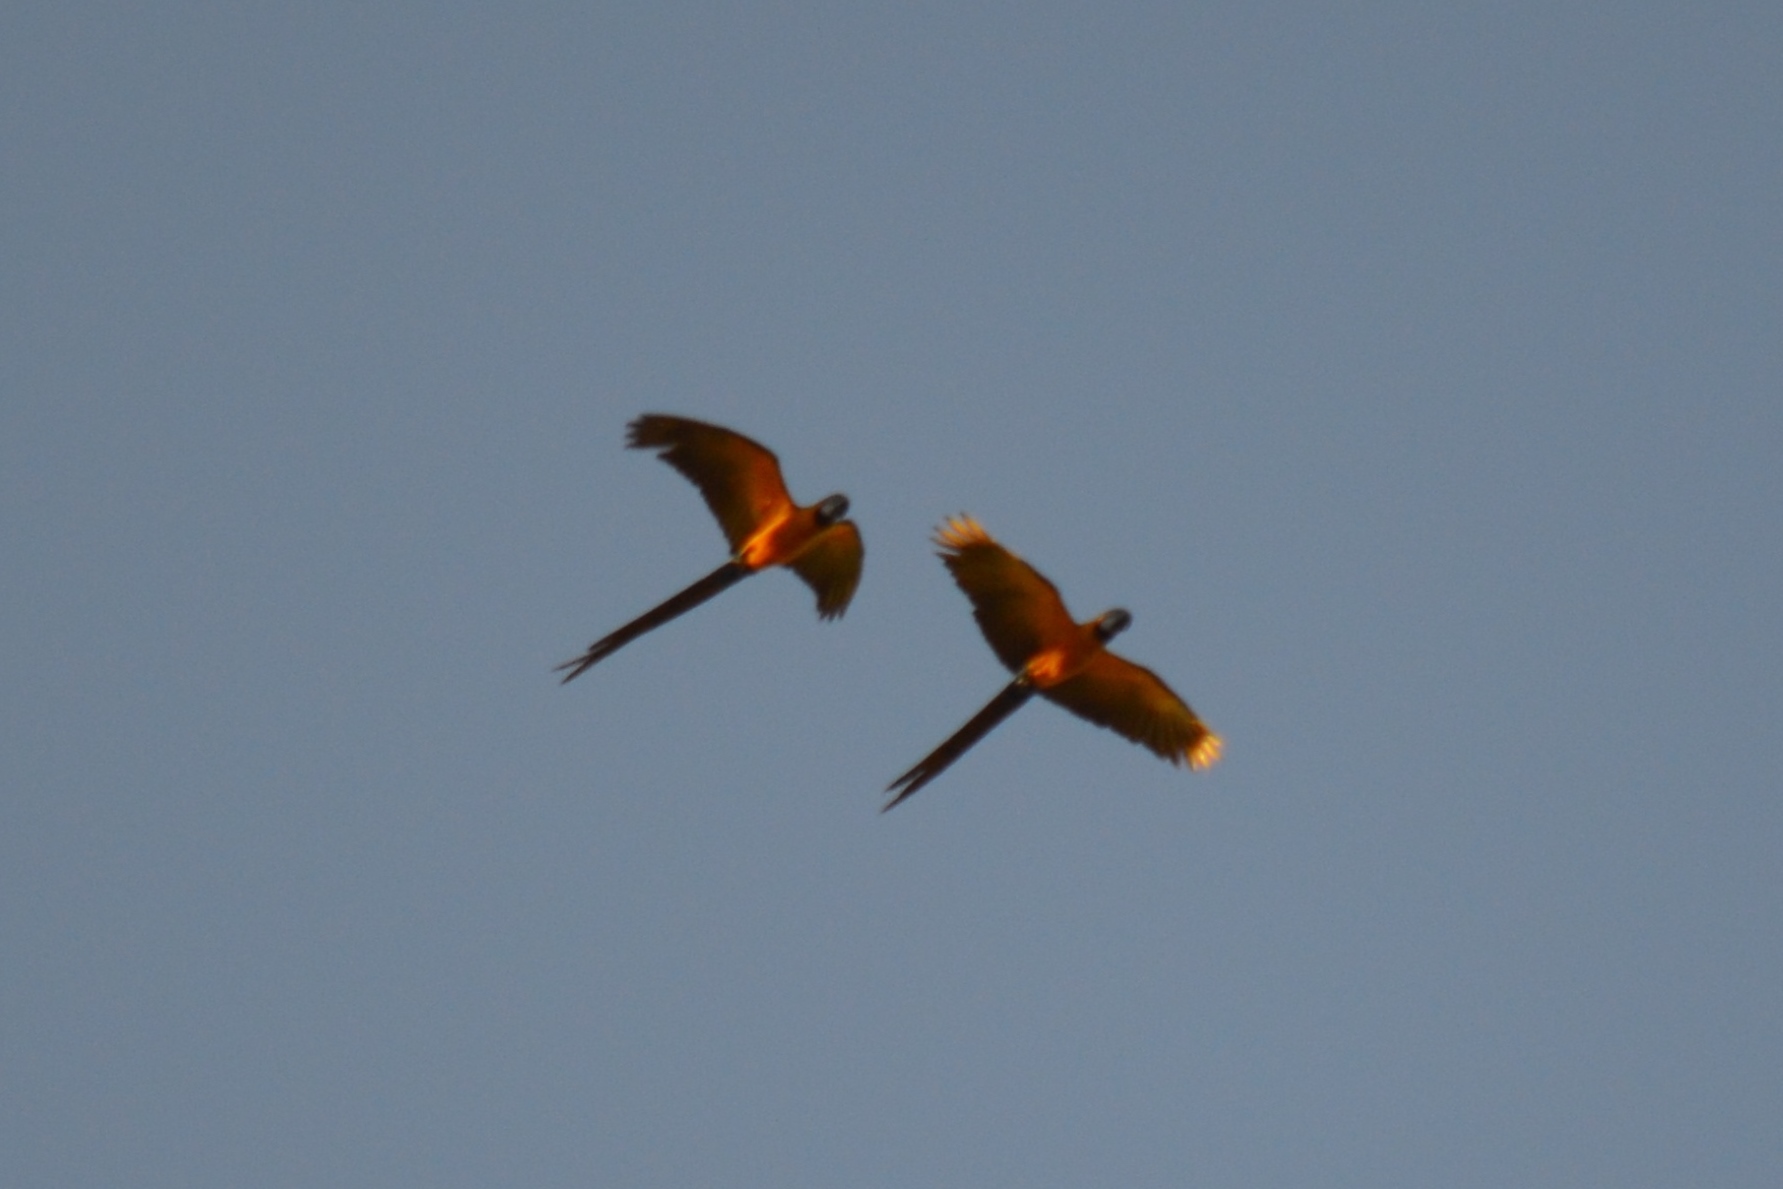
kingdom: Animalia
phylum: Chordata
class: Aves
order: Psittaciformes
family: Psittacidae
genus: Ara
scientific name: Ara ararauna
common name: Blue-and-yellow macaw
